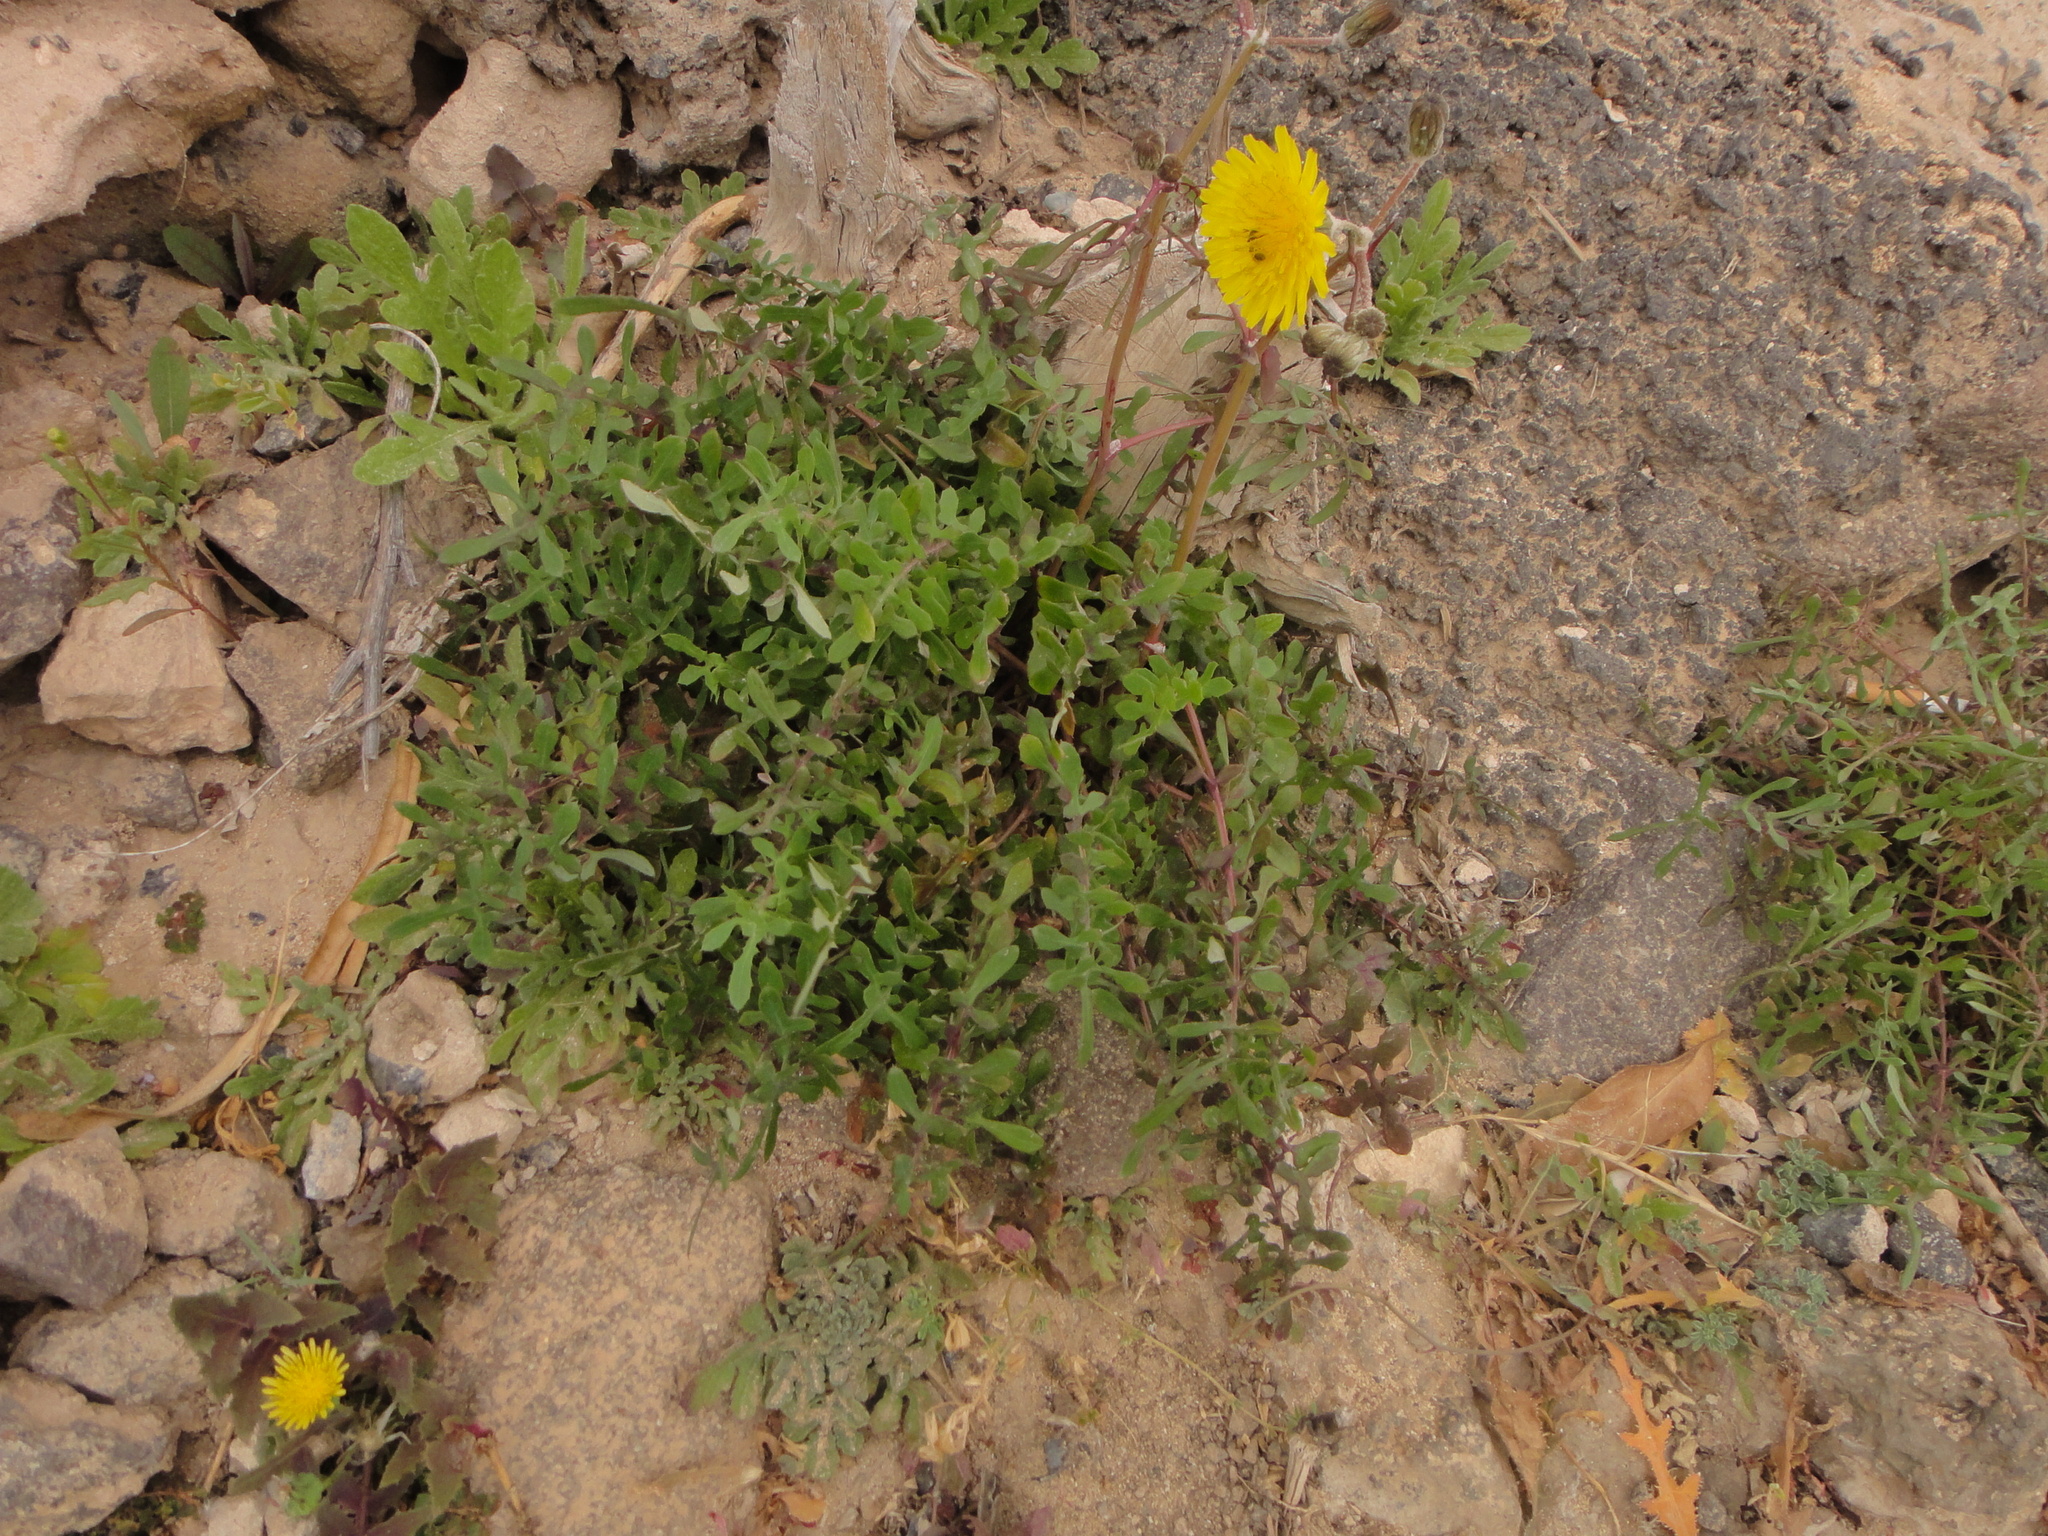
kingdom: Plantae
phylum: Tracheophyta
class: Magnoliopsida
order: Asterales
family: Asteraceae
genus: Sonchus
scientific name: Sonchus tenerrimus
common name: Clammy sowthistle
